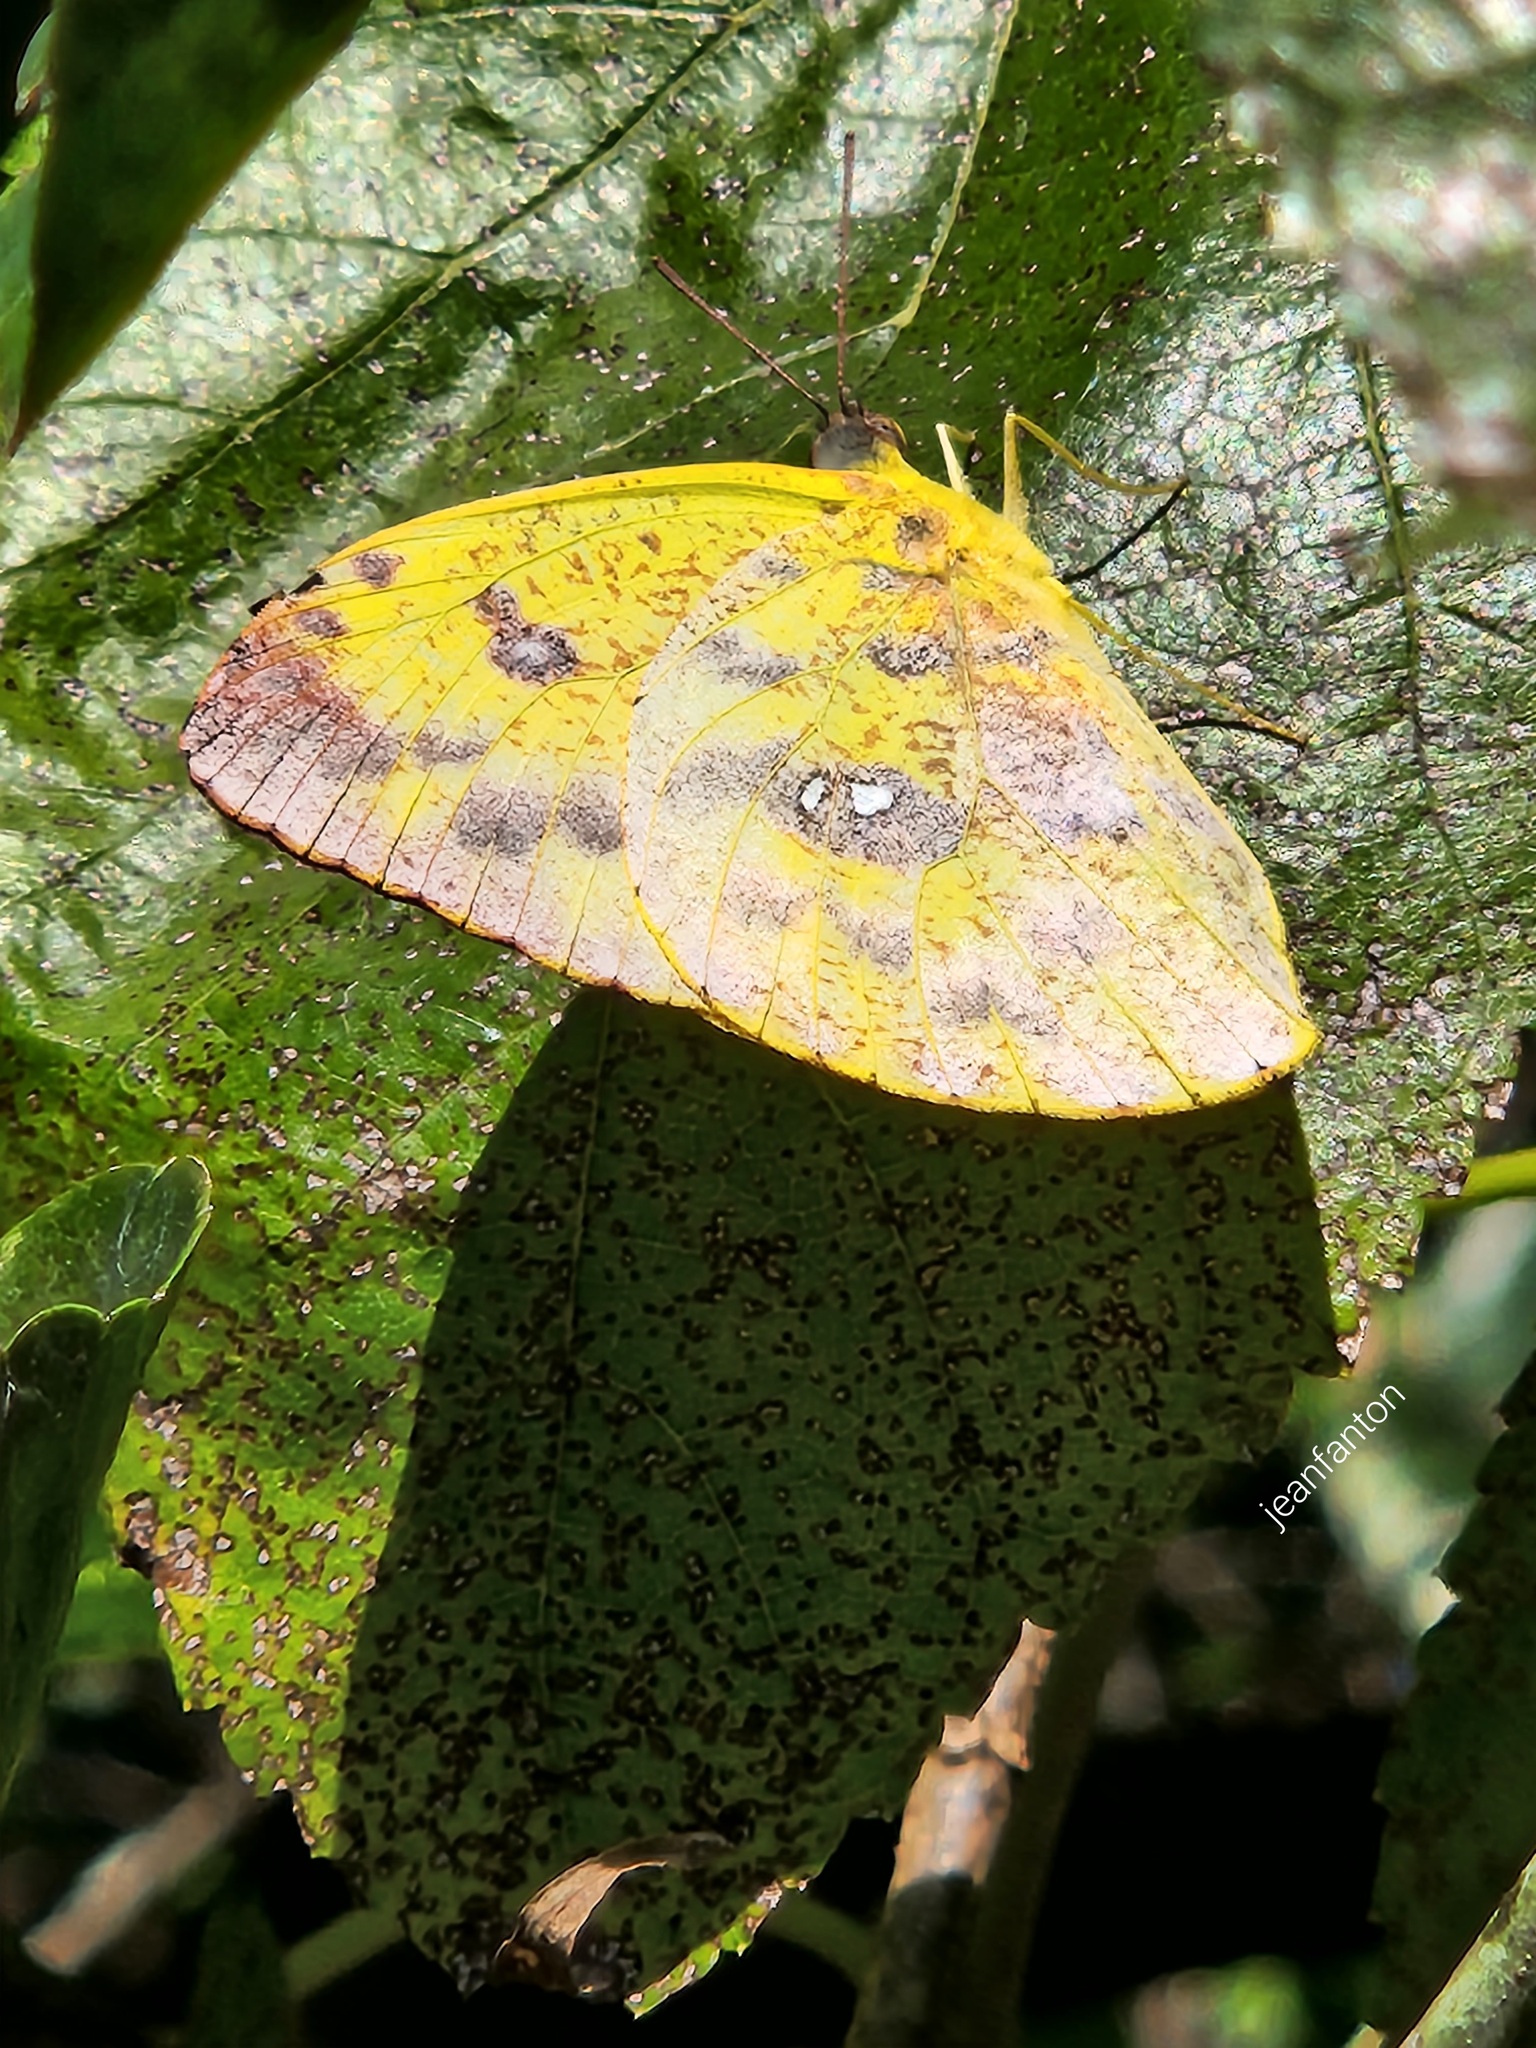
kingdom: Animalia
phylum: Arthropoda
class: Insecta
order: Lepidoptera
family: Pieridae
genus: Phoebis
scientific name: Phoebis argante
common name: Apricot sulphur
